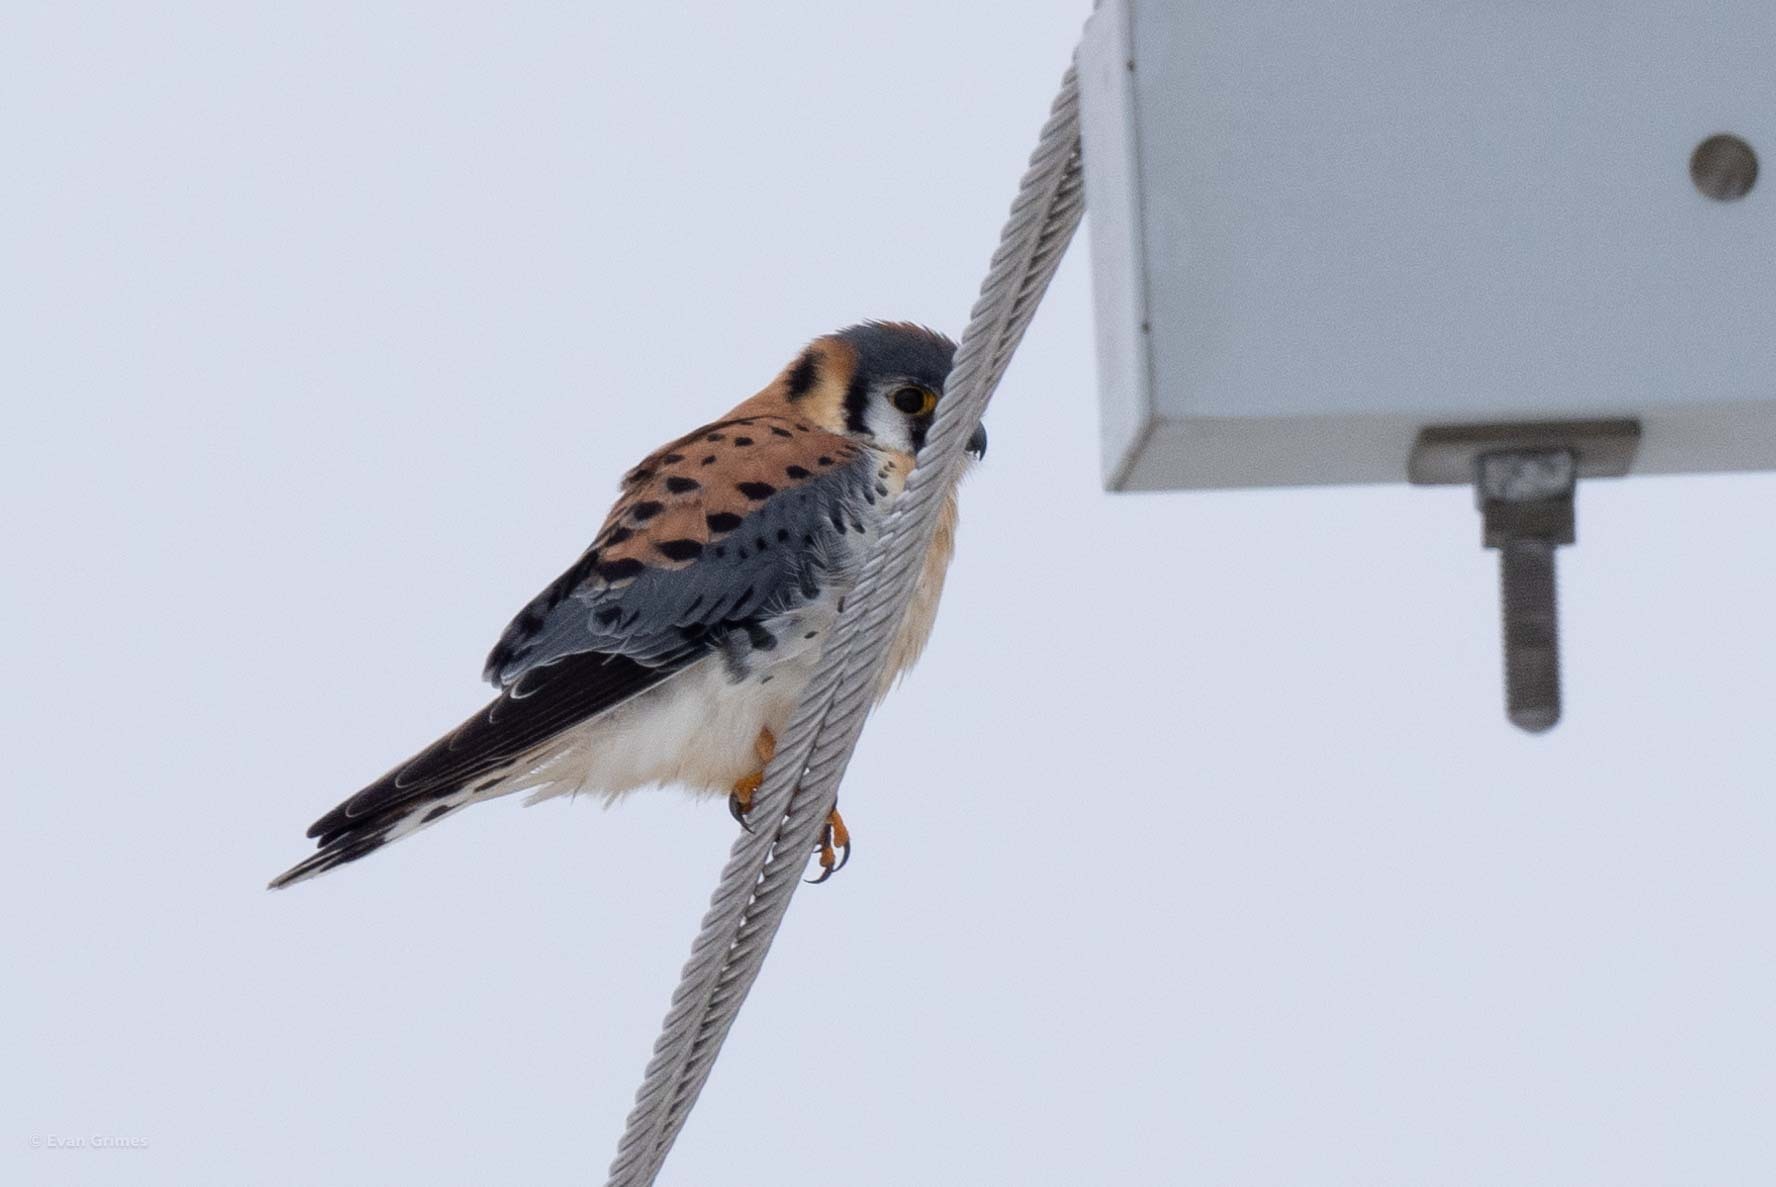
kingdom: Animalia
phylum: Chordata
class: Aves
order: Falconiformes
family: Falconidae
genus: Falco
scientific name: Falco sparverius
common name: American kestrel
